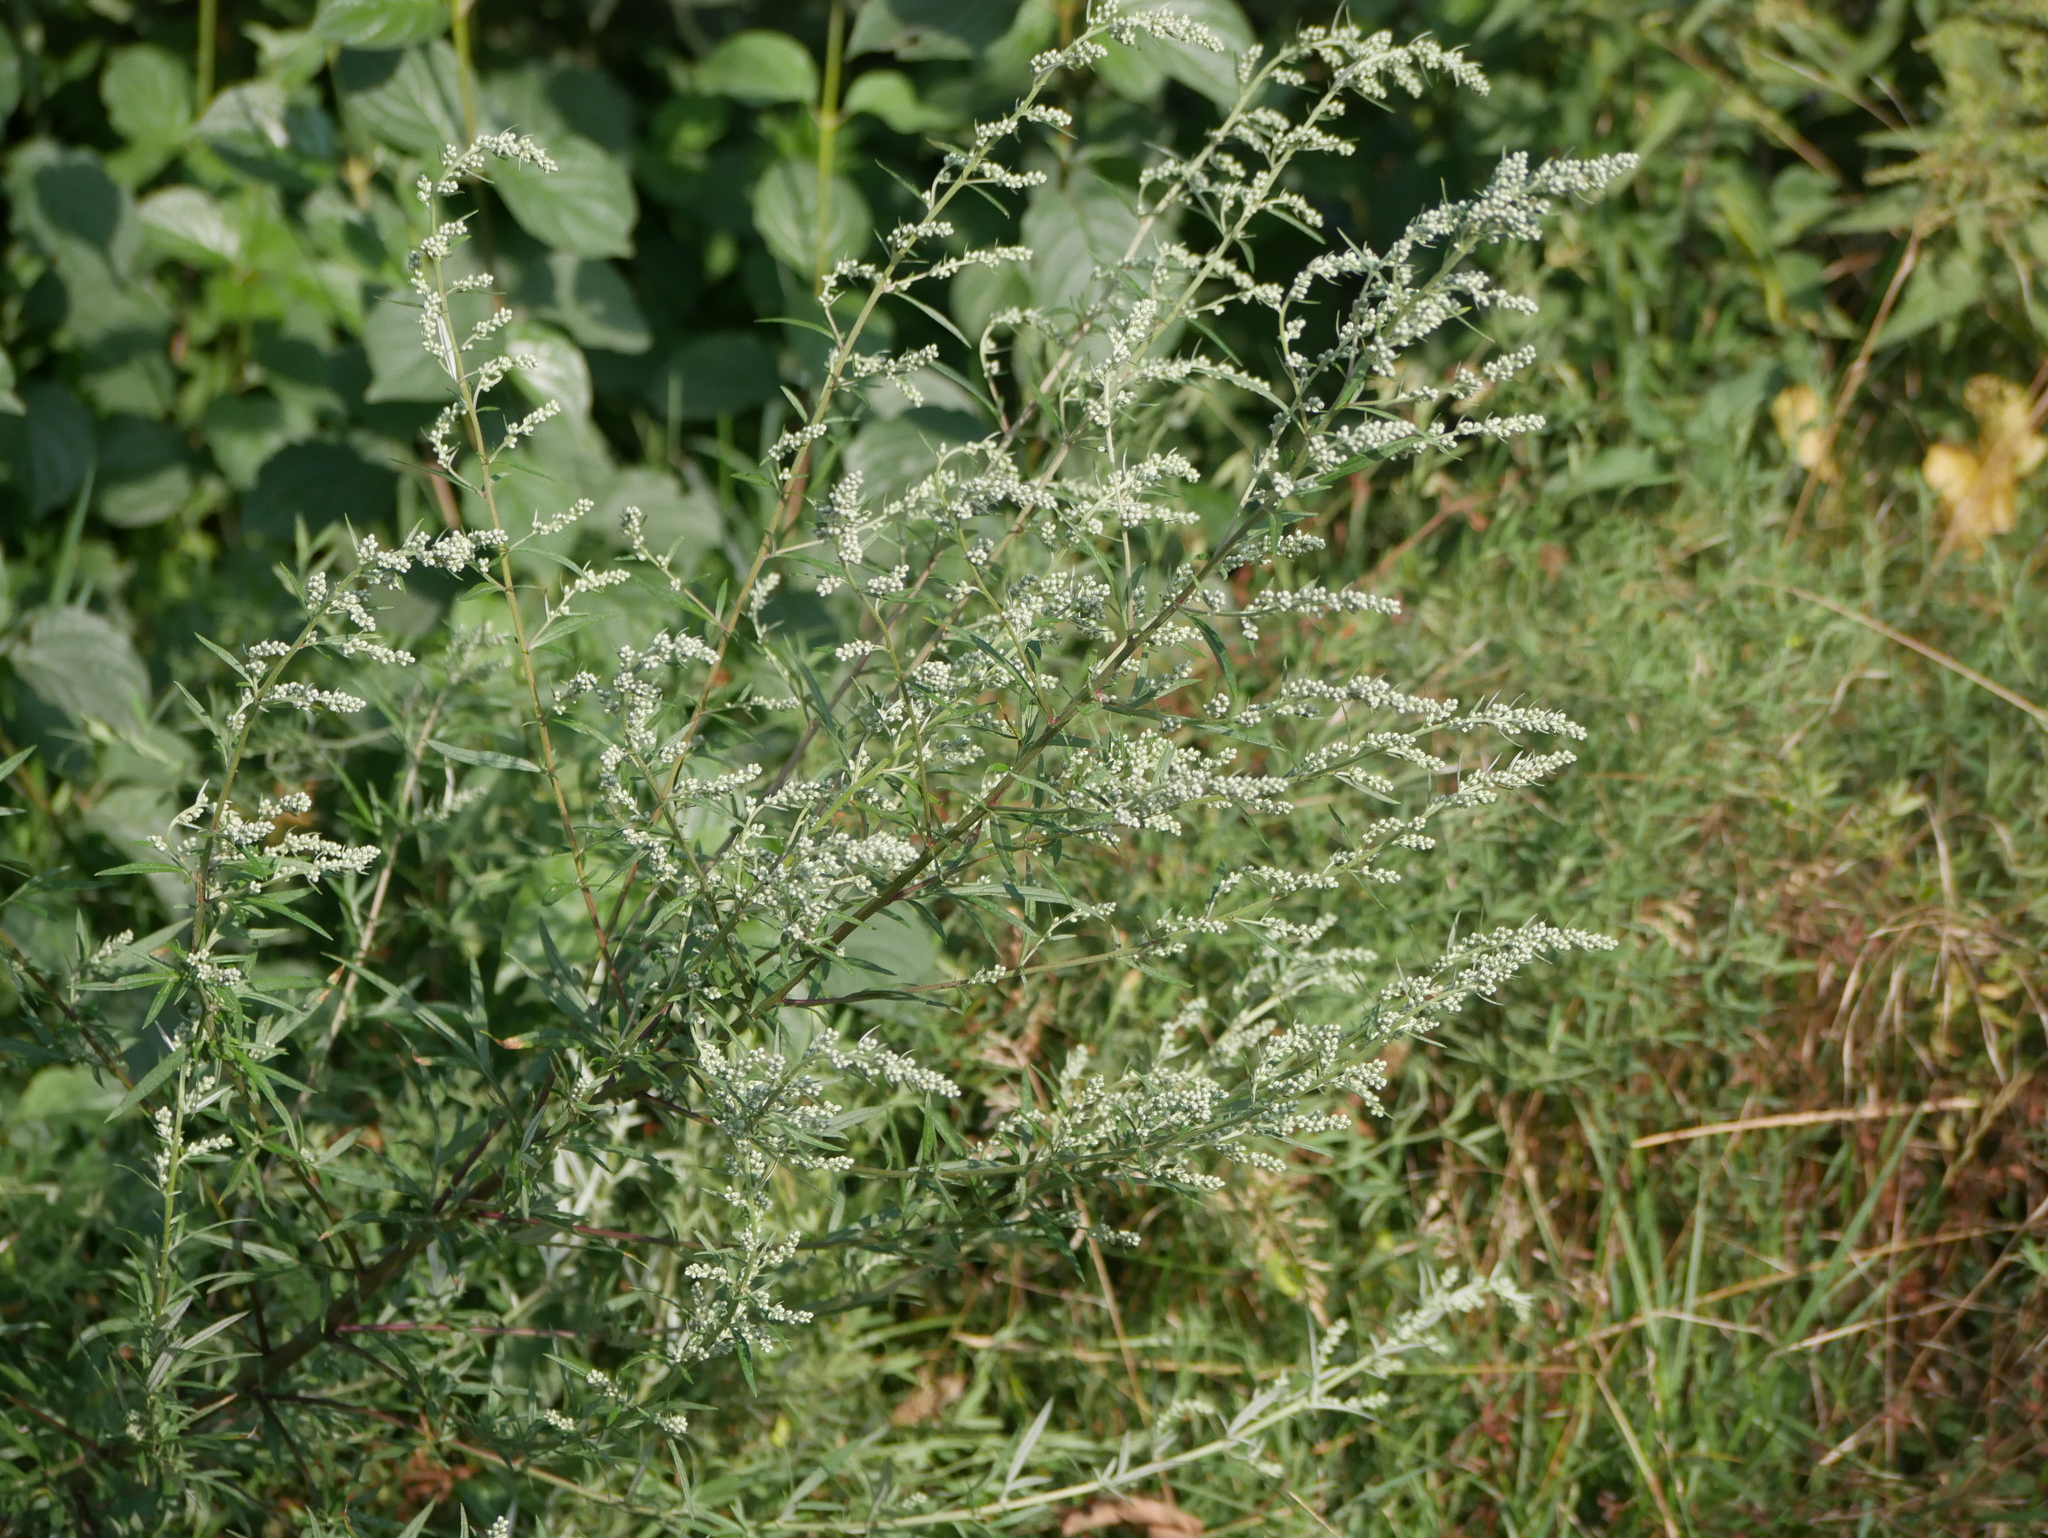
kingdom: Plantae
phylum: Tracheophyta
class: Magnoliopsida
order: Asterales
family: Asteraceae
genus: Artemisia
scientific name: Artemisia vulgaris
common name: Mugwort
